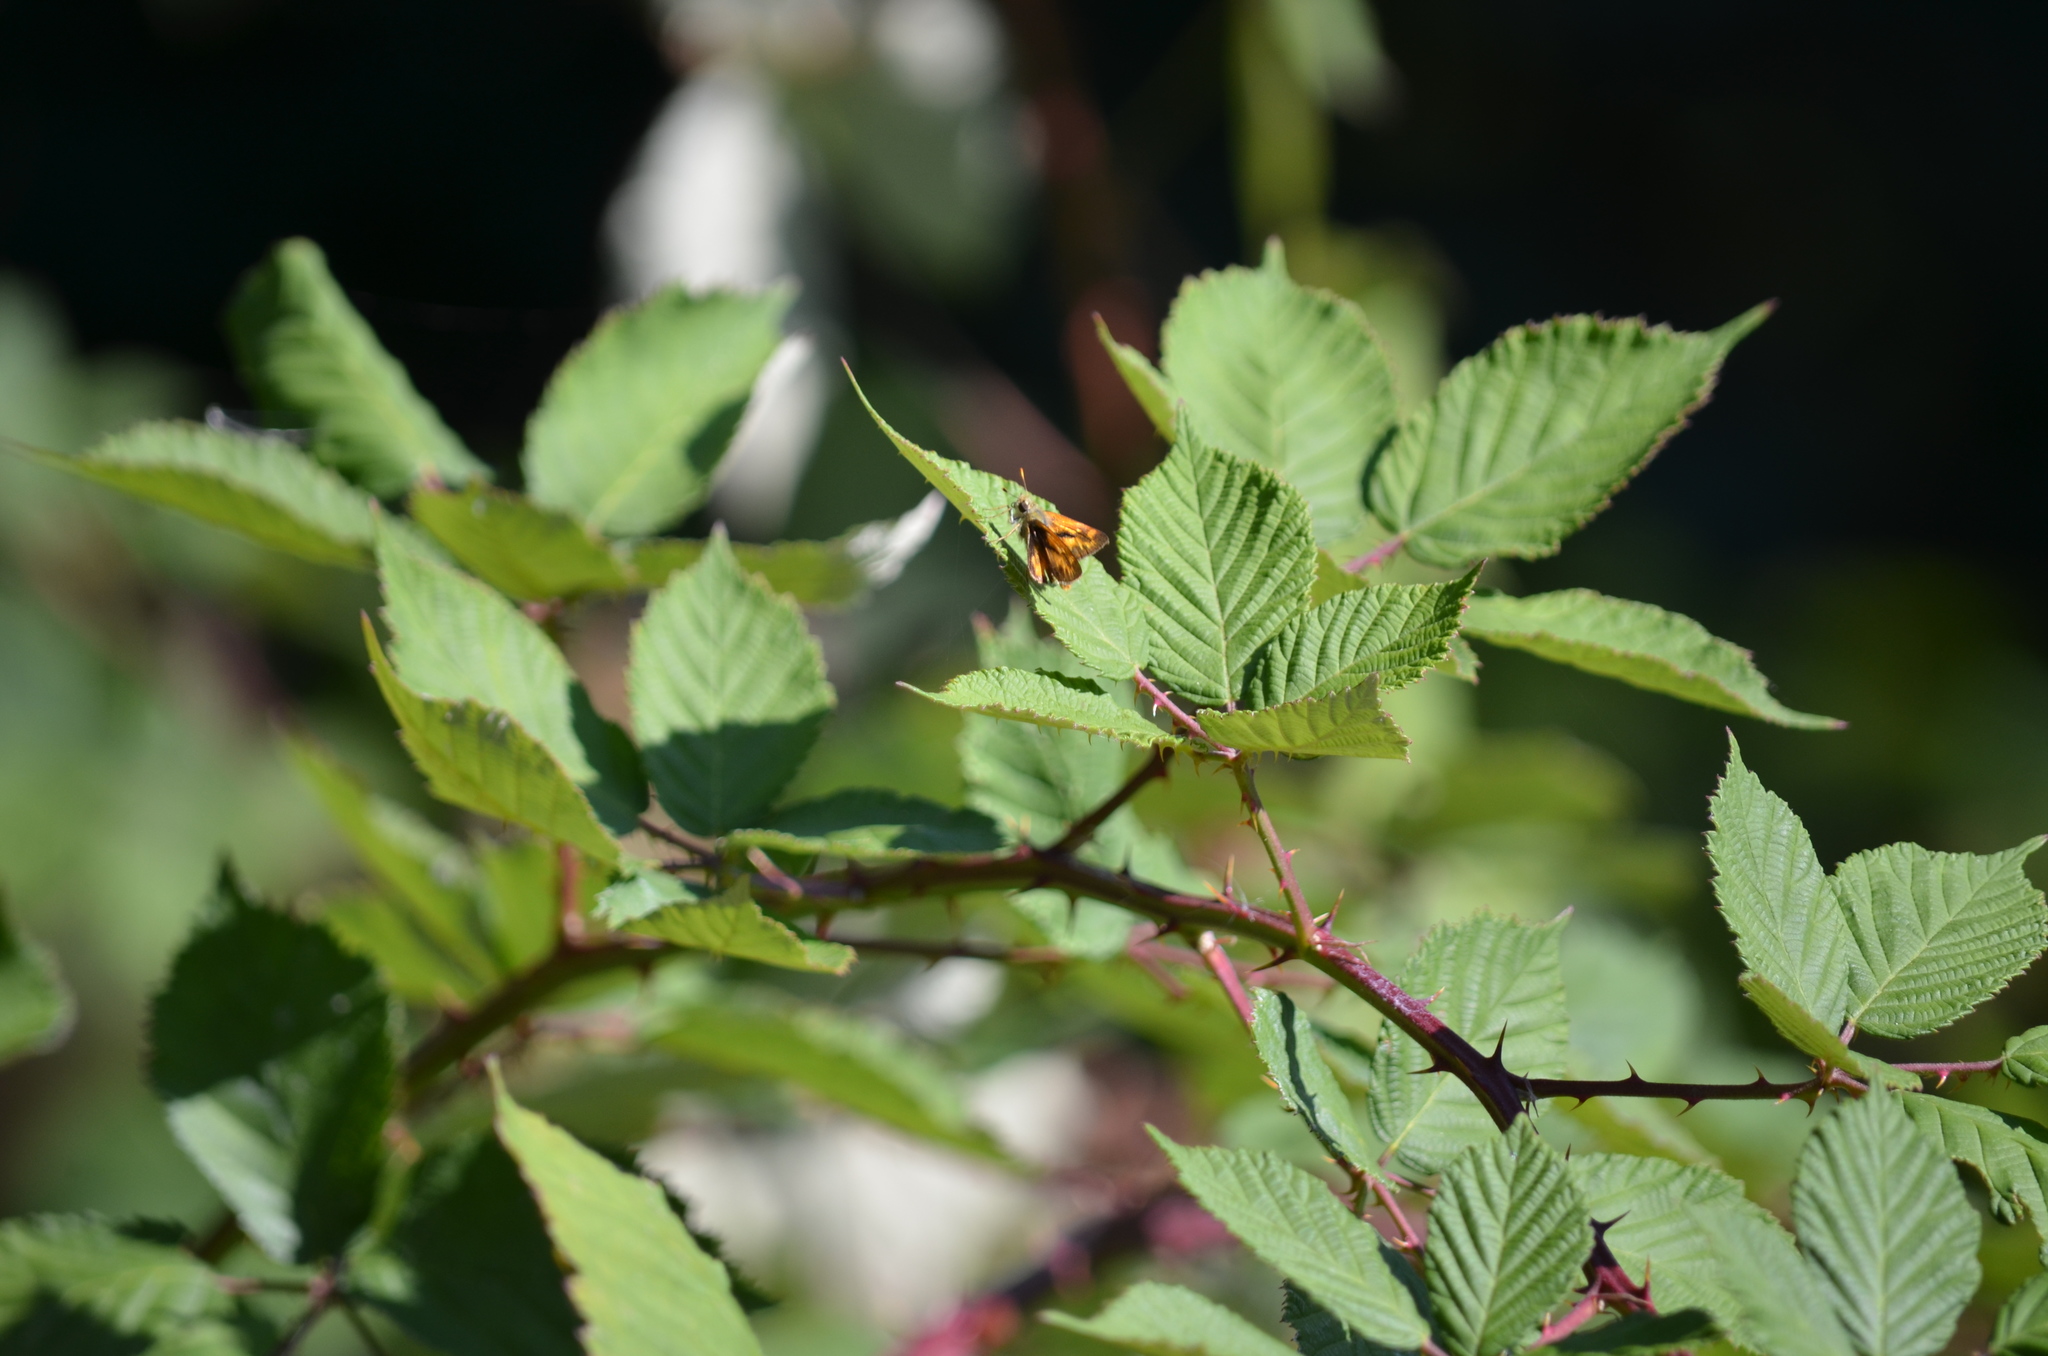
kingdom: Animalia
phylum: Arthropoda
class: Insecta
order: Lepidoptera
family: Hesperiidae
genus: Ochlodes
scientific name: Ochlodes sylvanoides
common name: Woodland skipper
